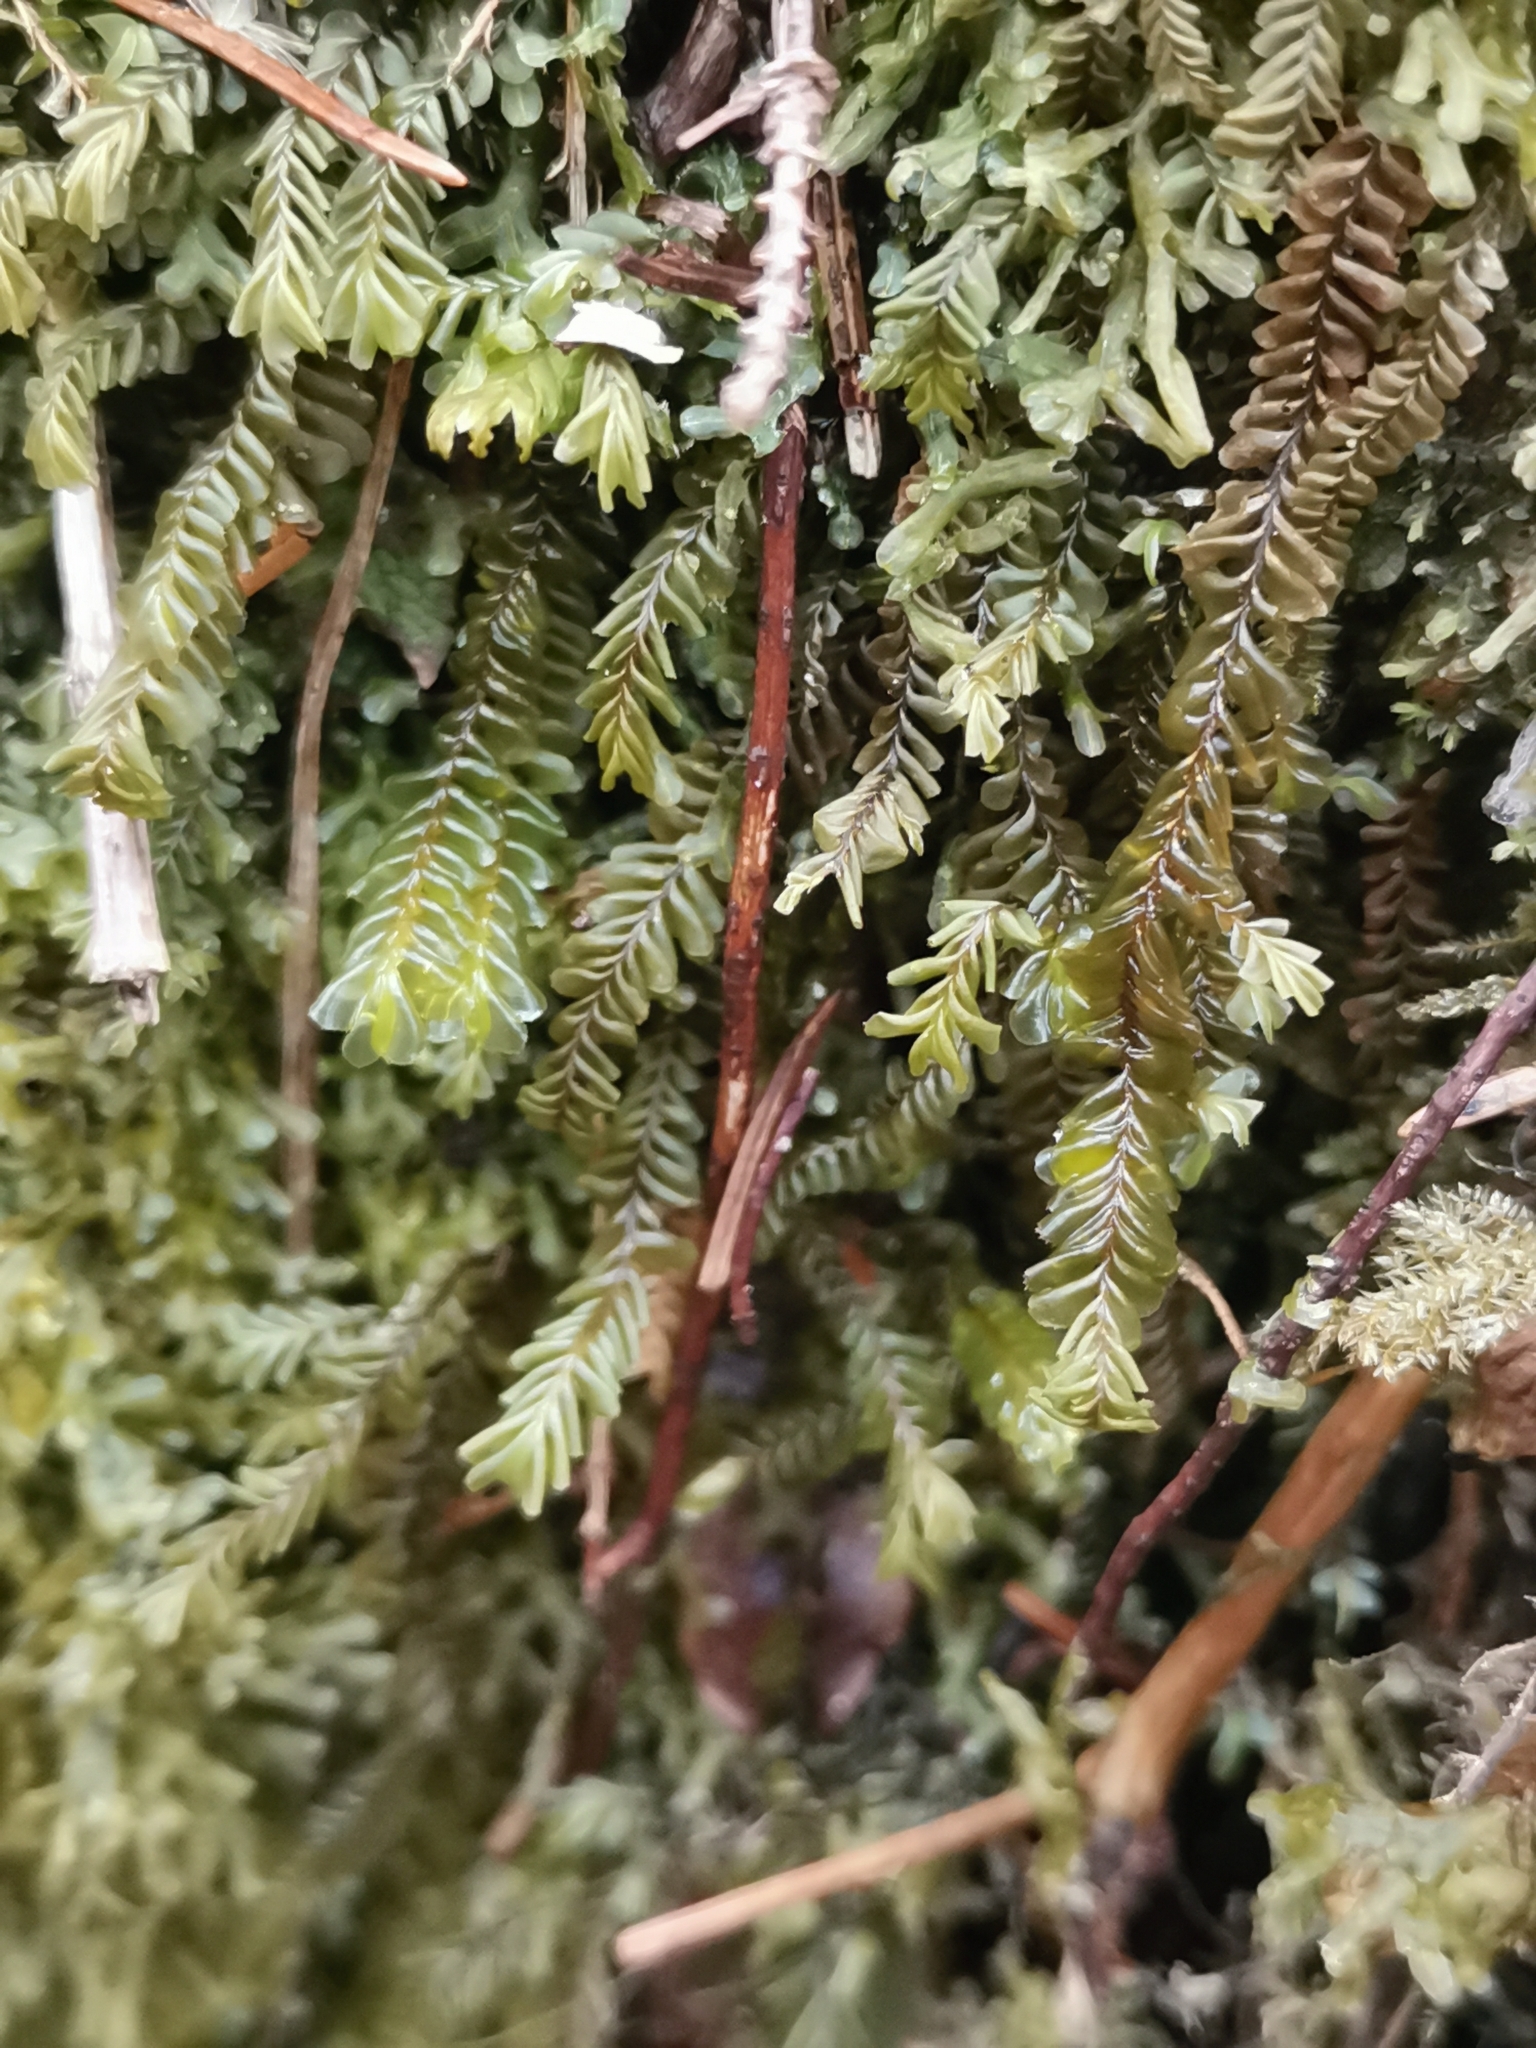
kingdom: Plantae
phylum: Marchantiophyta
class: Jungermanniopsida
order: Metzgeriales
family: Metzgeriaceae
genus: Metzgeria
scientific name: Metzgeria conjugata
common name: Rock veilwort
